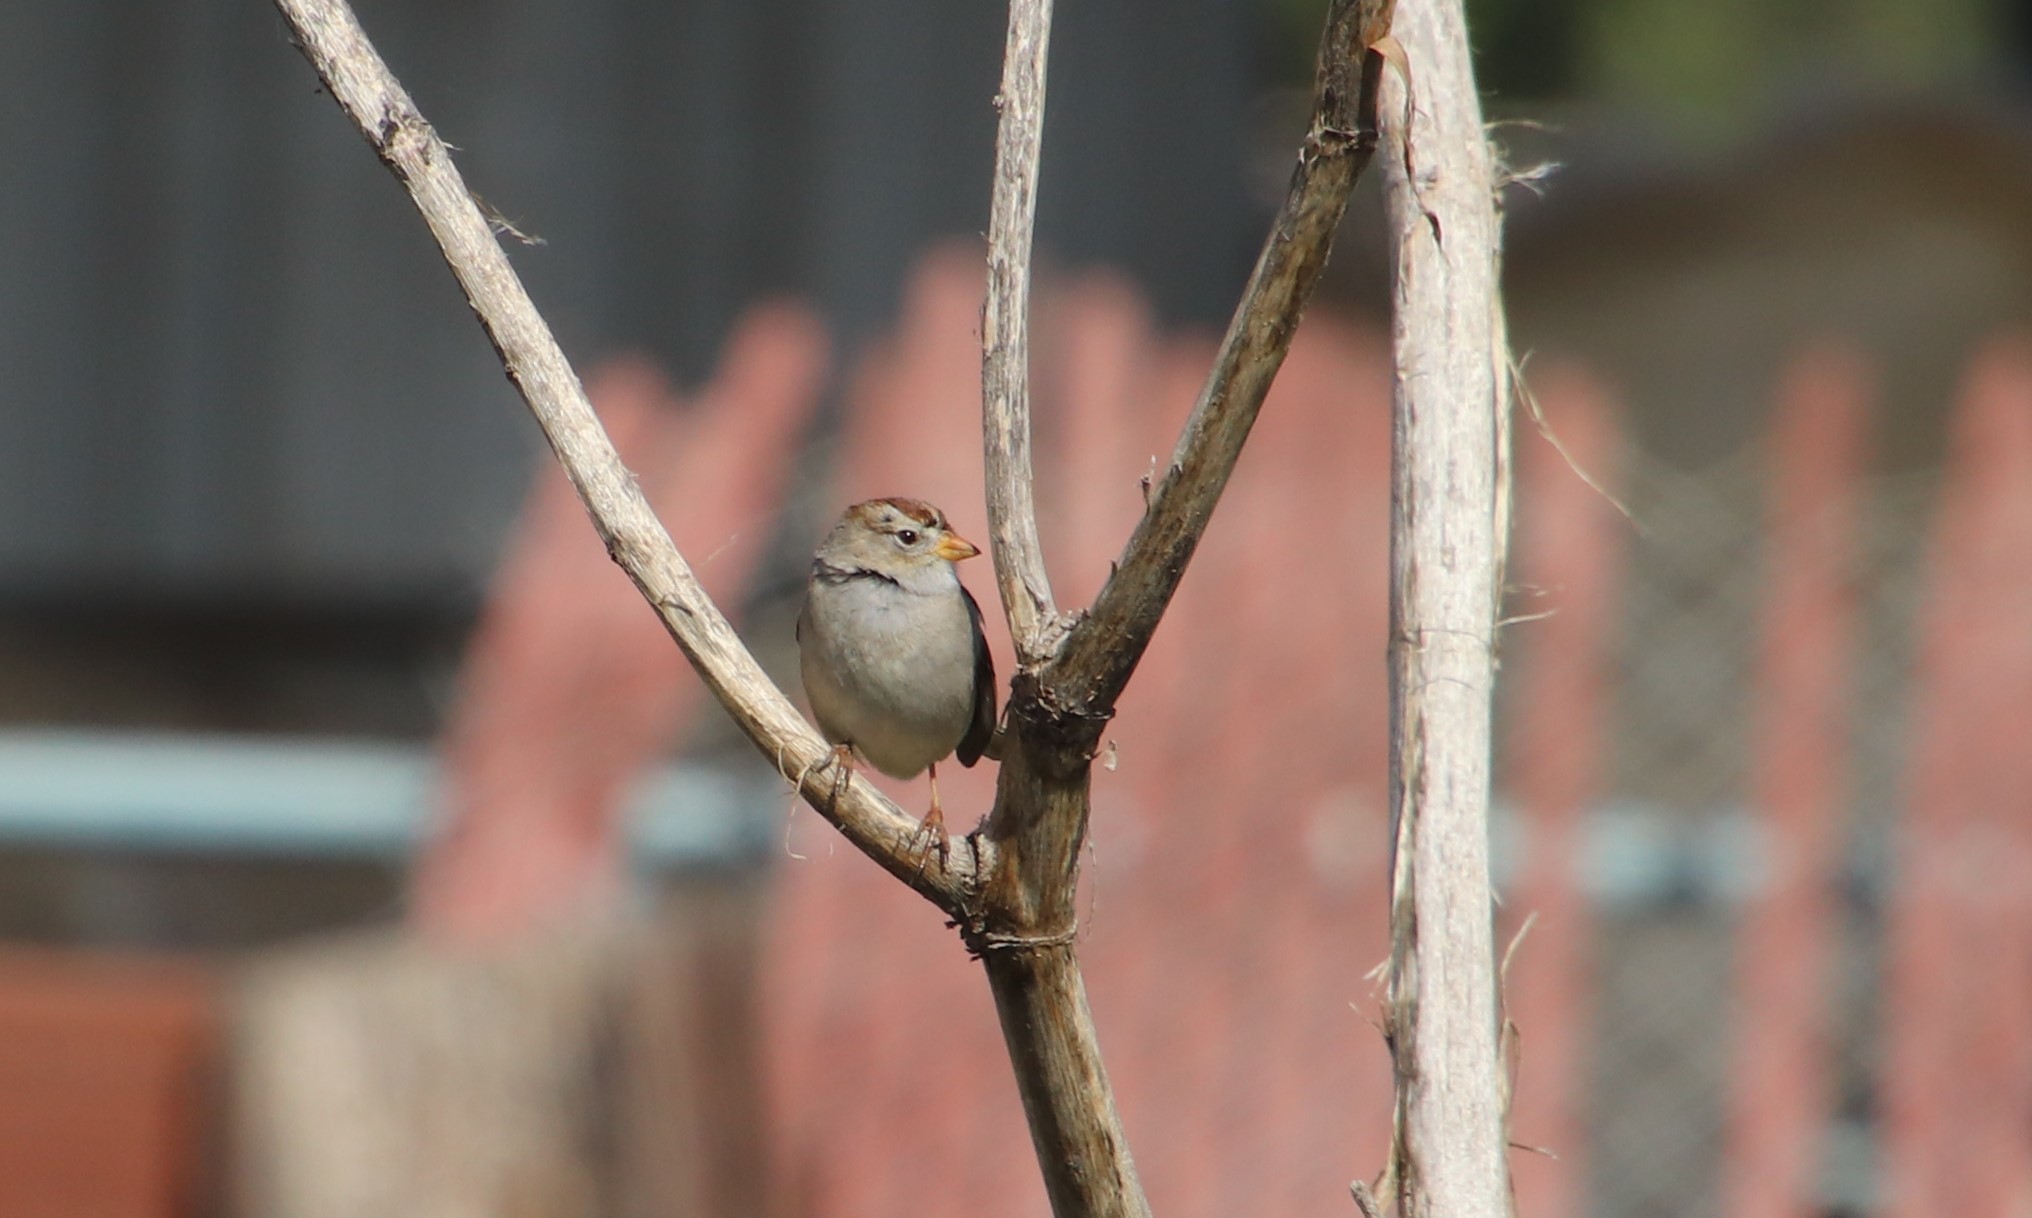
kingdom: Animalia
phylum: Chordata
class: Aves
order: Passeriformes
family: Passerellidae
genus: Zonotrichia
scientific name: Zonotrichia leucophrys
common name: White-crowned sparrow
